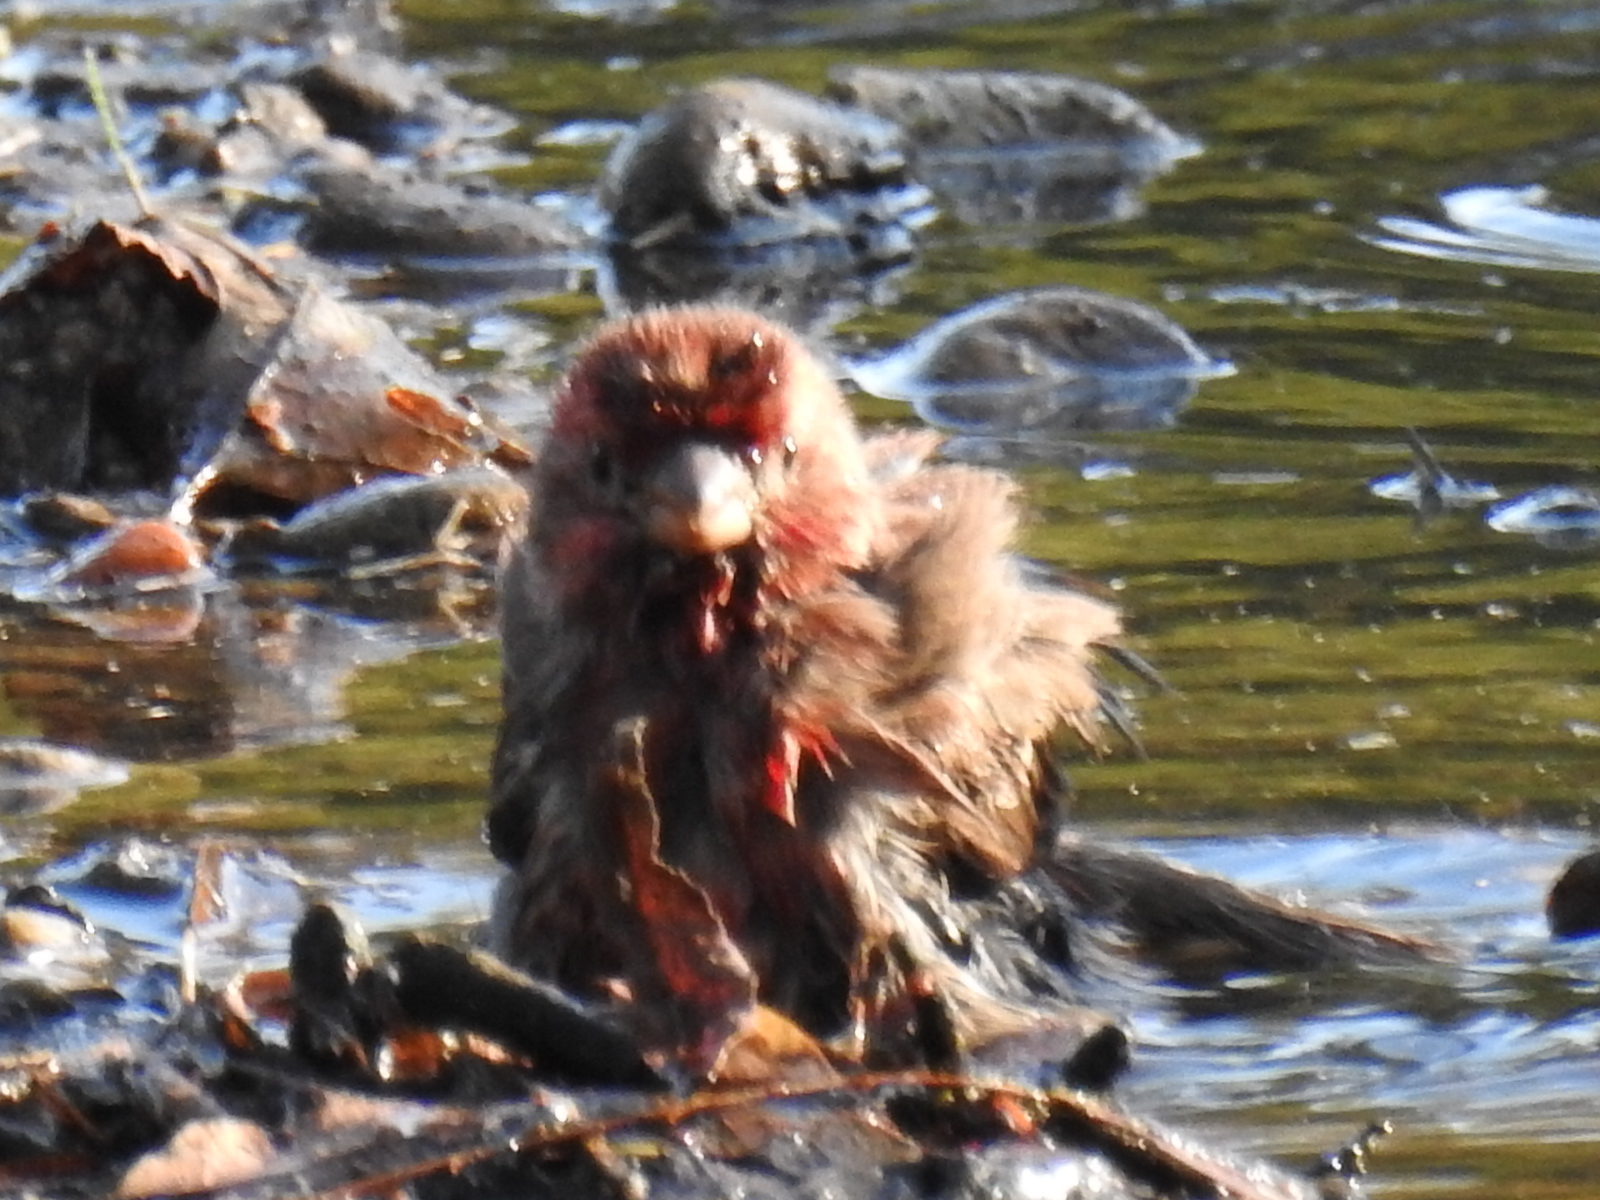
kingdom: Animalia
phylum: Chordata
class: Aves
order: Passeriformes
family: Fringillidae
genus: Haemorhous
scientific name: Haemorhous mexicanus
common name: House finch
